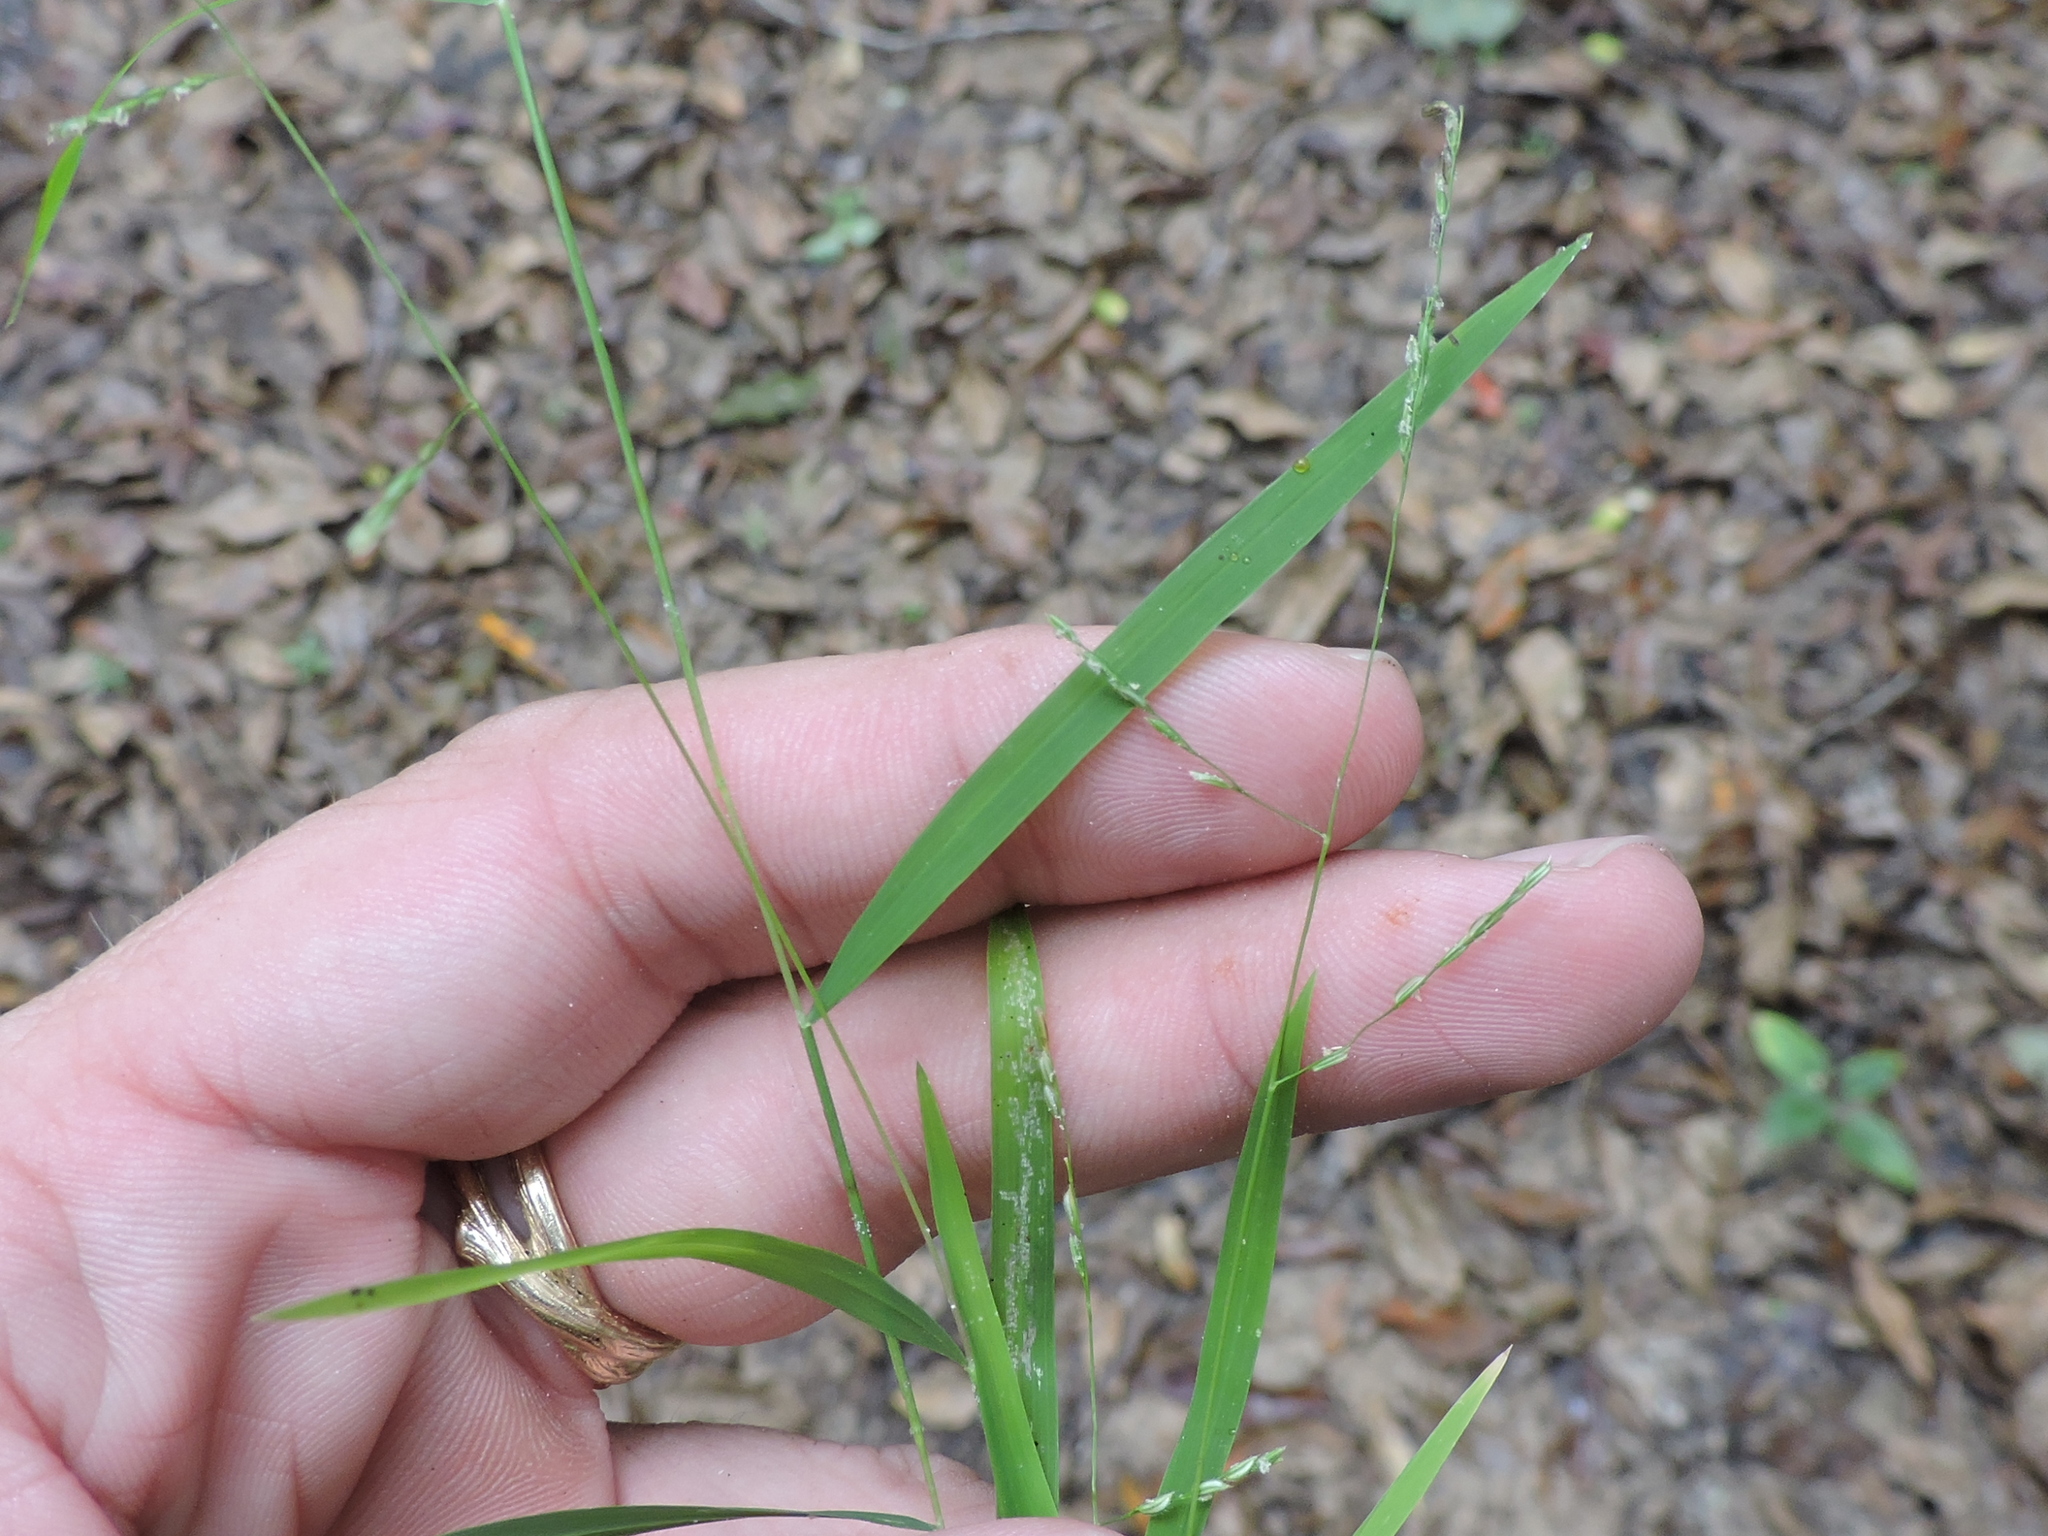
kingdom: Plantae
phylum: Tracheophyta
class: Liliopsida
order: Poales
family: Poaceae
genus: Leersia
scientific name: Leersia virginica
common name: White cutgrass
